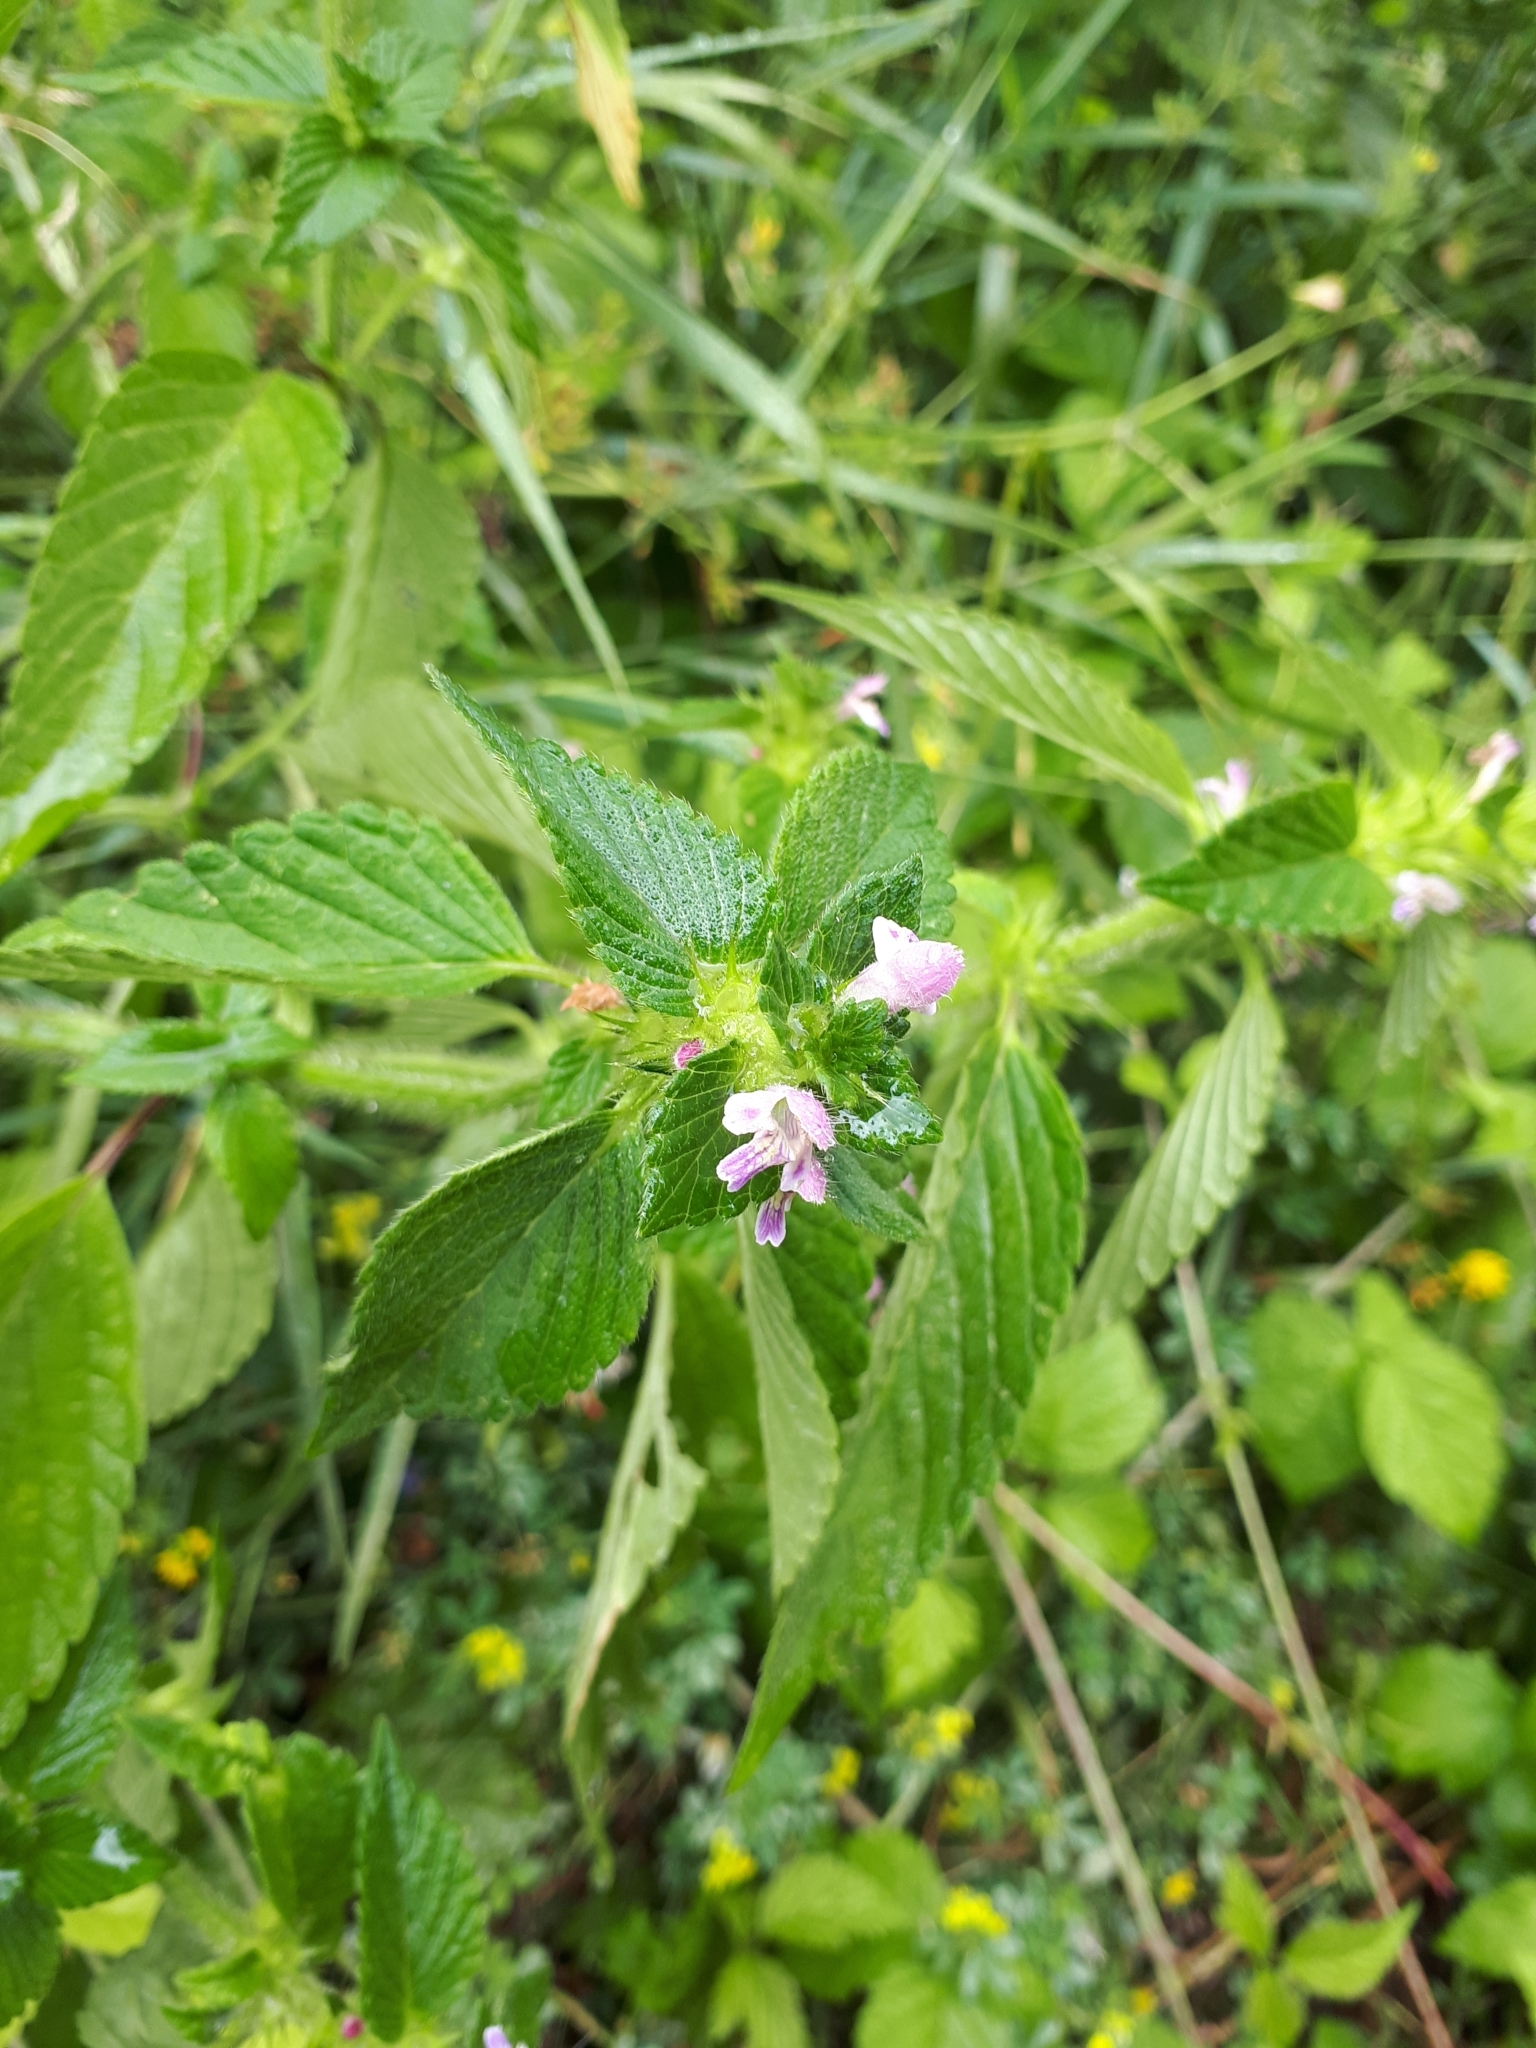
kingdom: Plantae
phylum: Tracheophyta
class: Magnoliopsida
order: Lamiales
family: Lamiaceae
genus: Galeopsis
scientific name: Galeopsis bifida
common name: Bifid hemp-nettle
